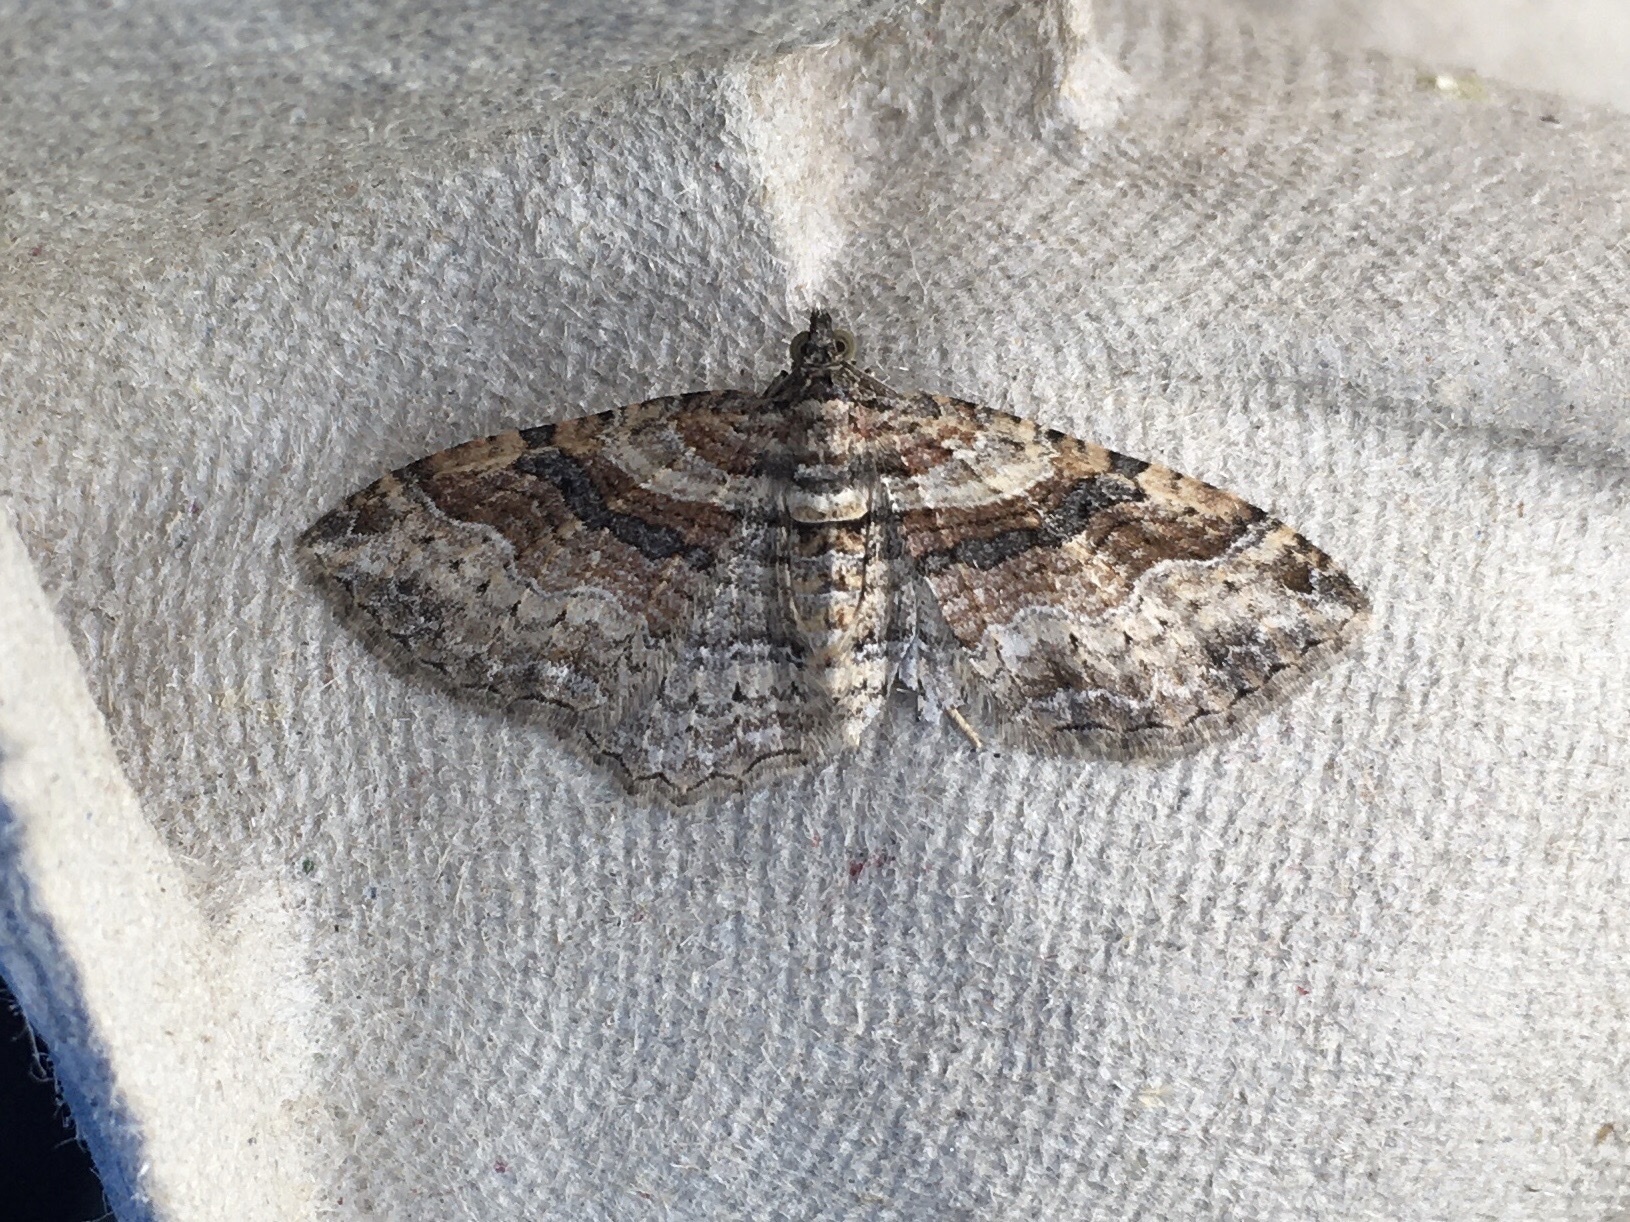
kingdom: Animalia
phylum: Arthropoda
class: Insecta
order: Lepidoptera
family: Geometridae
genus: Costaconvexa
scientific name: Costaconvexa centrostrigaria
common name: Bent-line carpet
